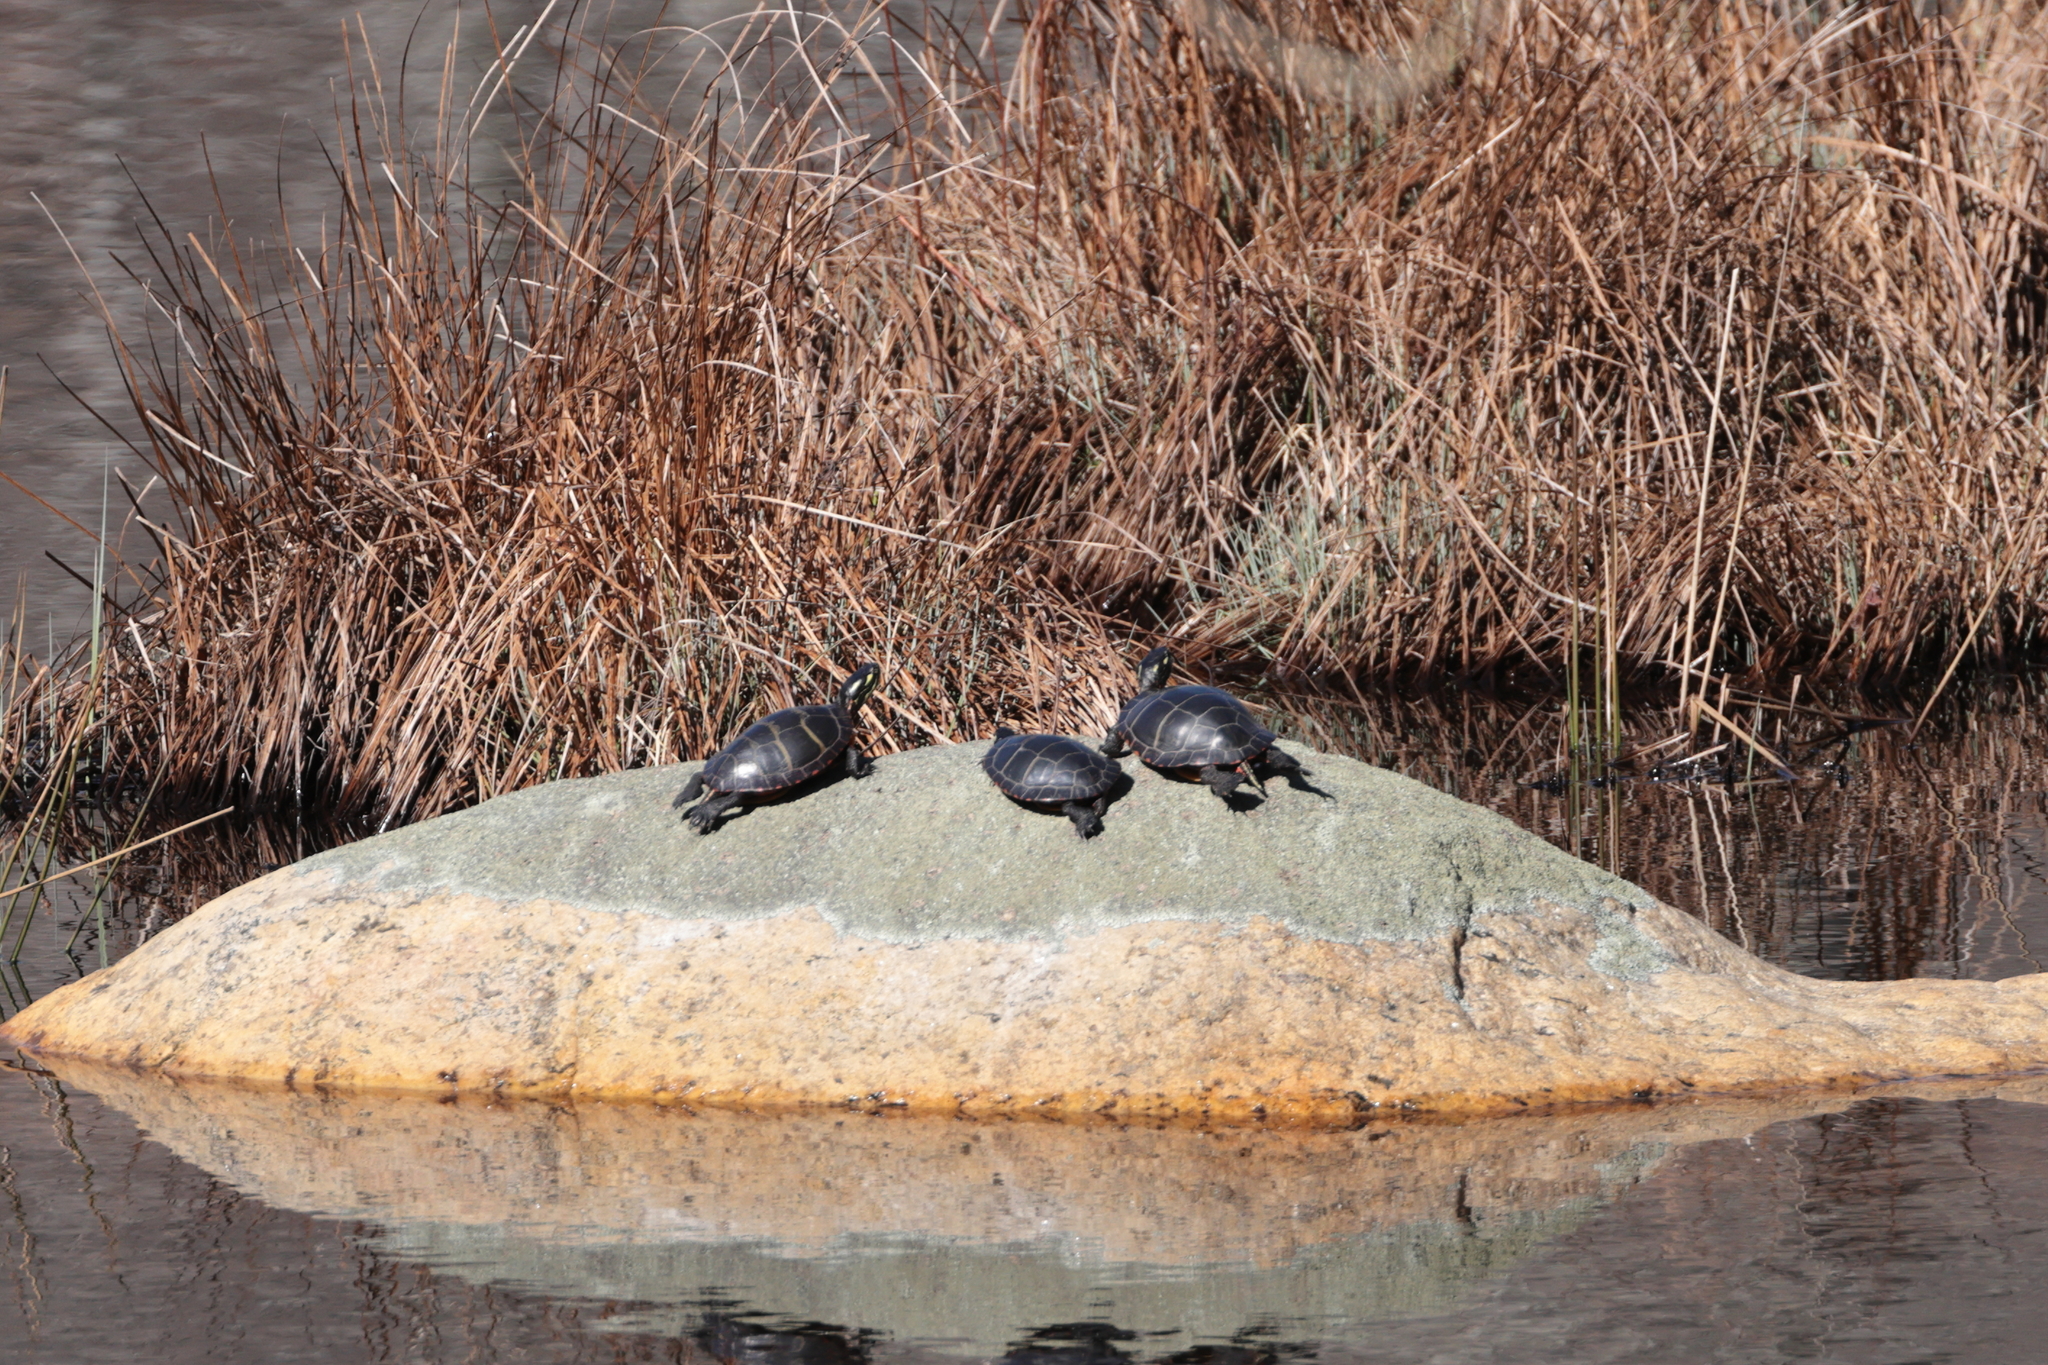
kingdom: Animalia
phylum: Chordata
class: Testudines
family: Emydidae
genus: Chrysemys
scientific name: Chrysemys picta
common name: Painted turtle
